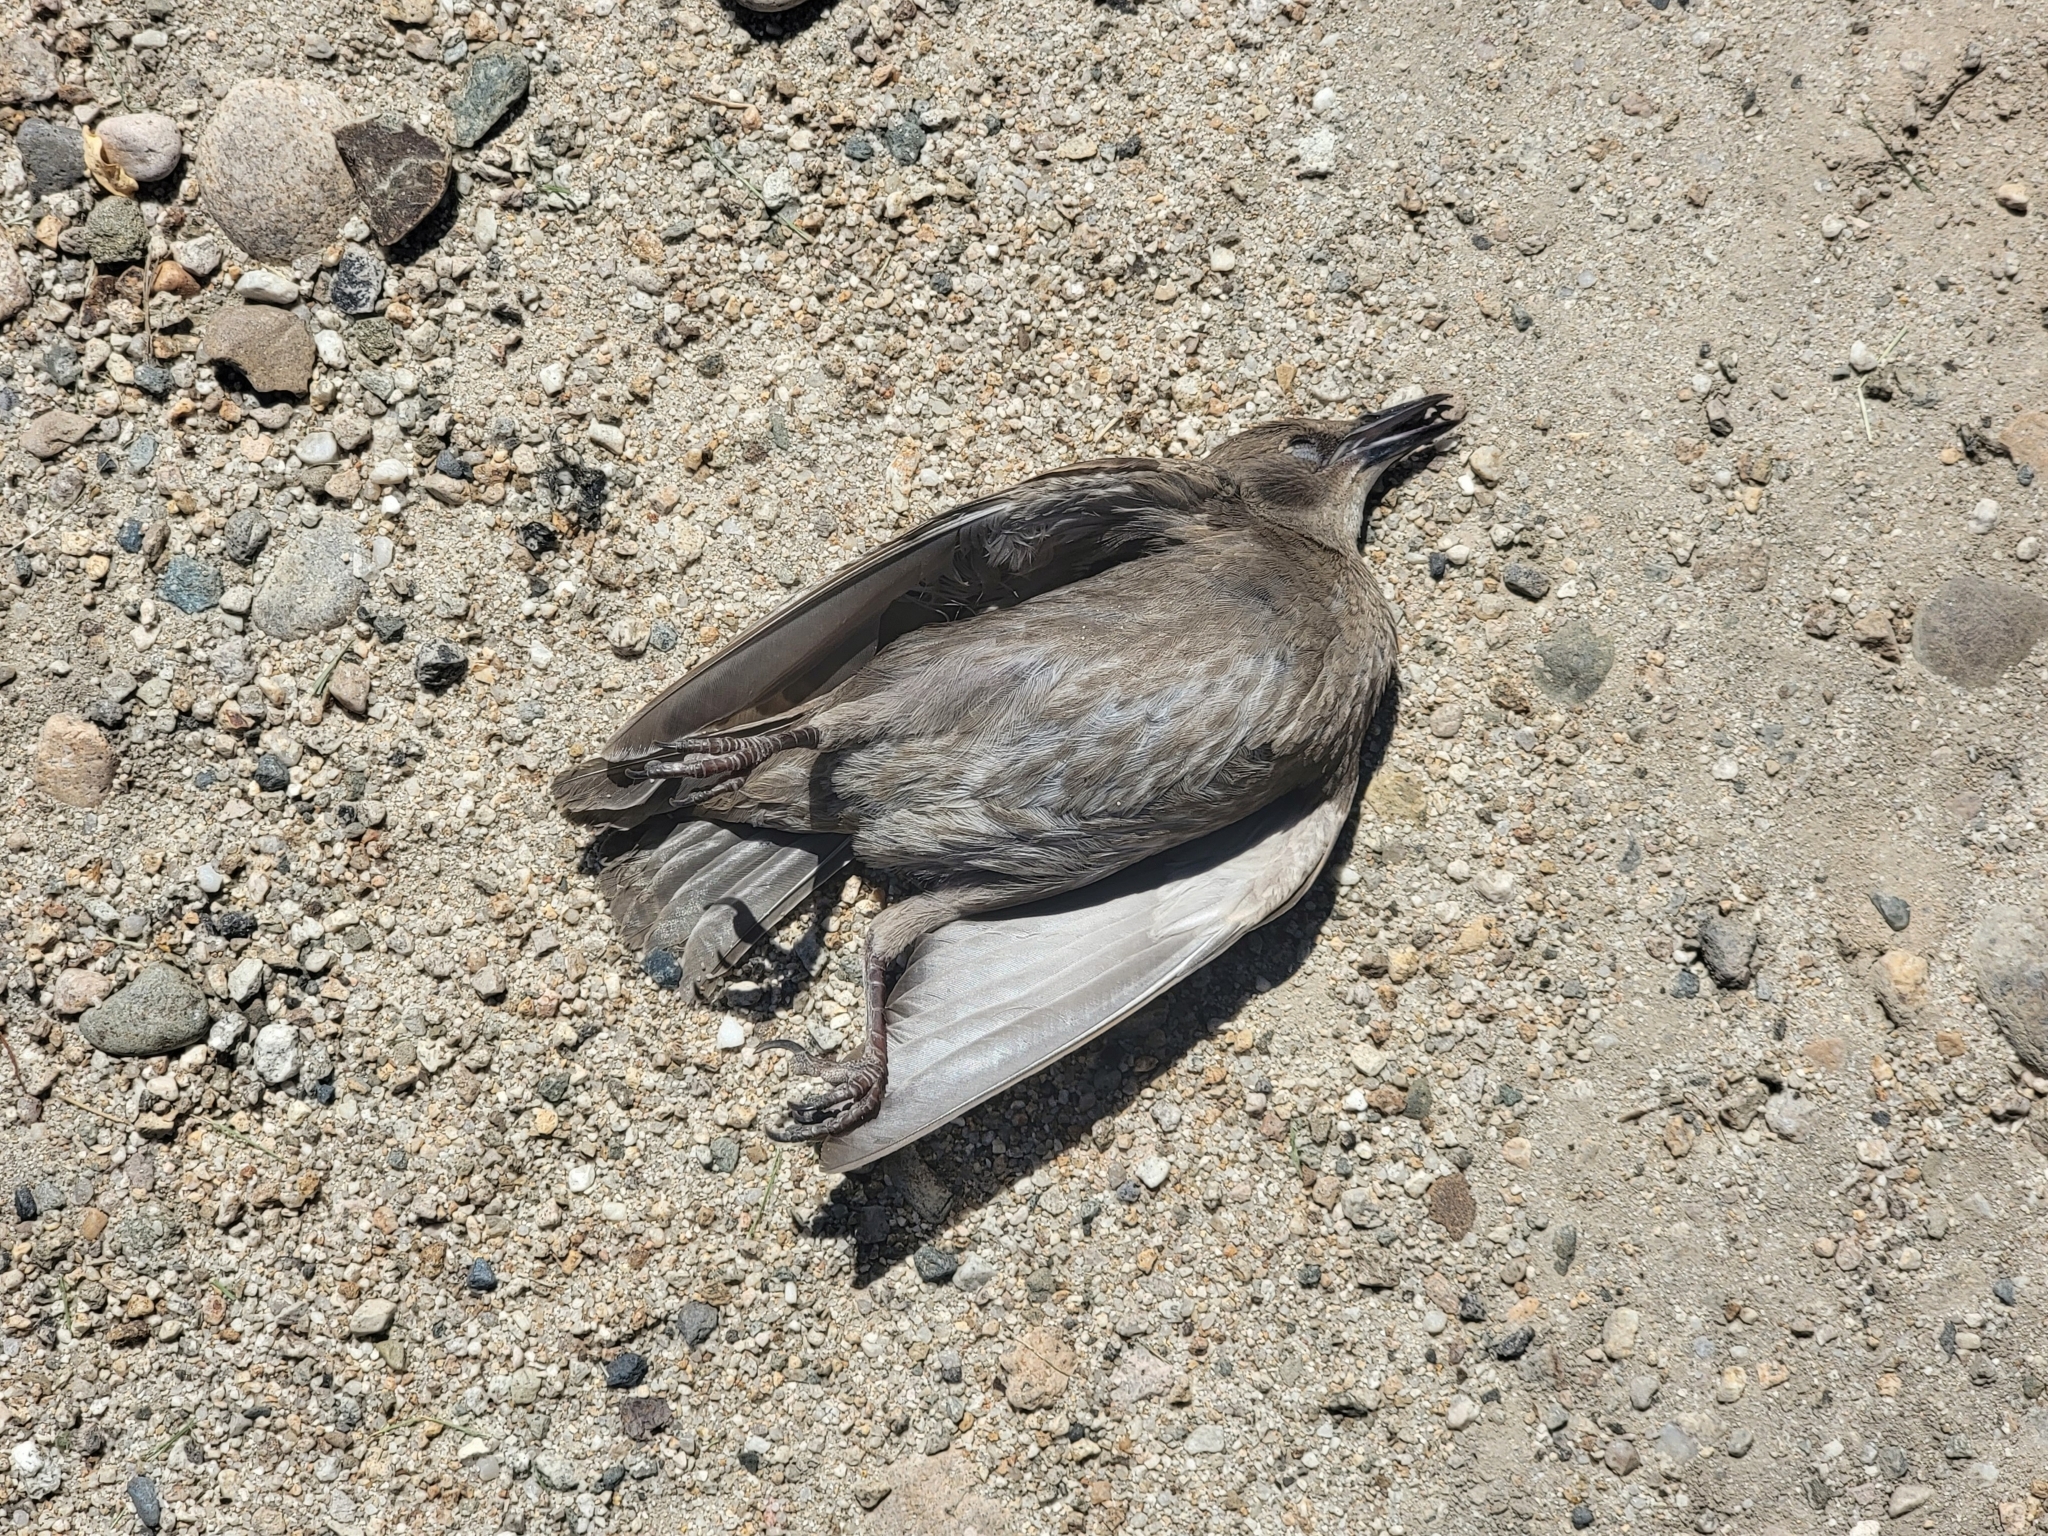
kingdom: Animalia
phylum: Chordata
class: Aves
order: Passeriformes
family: Sturnidae
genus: Sturnus
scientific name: Sturnus vulgaris
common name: Common starling
